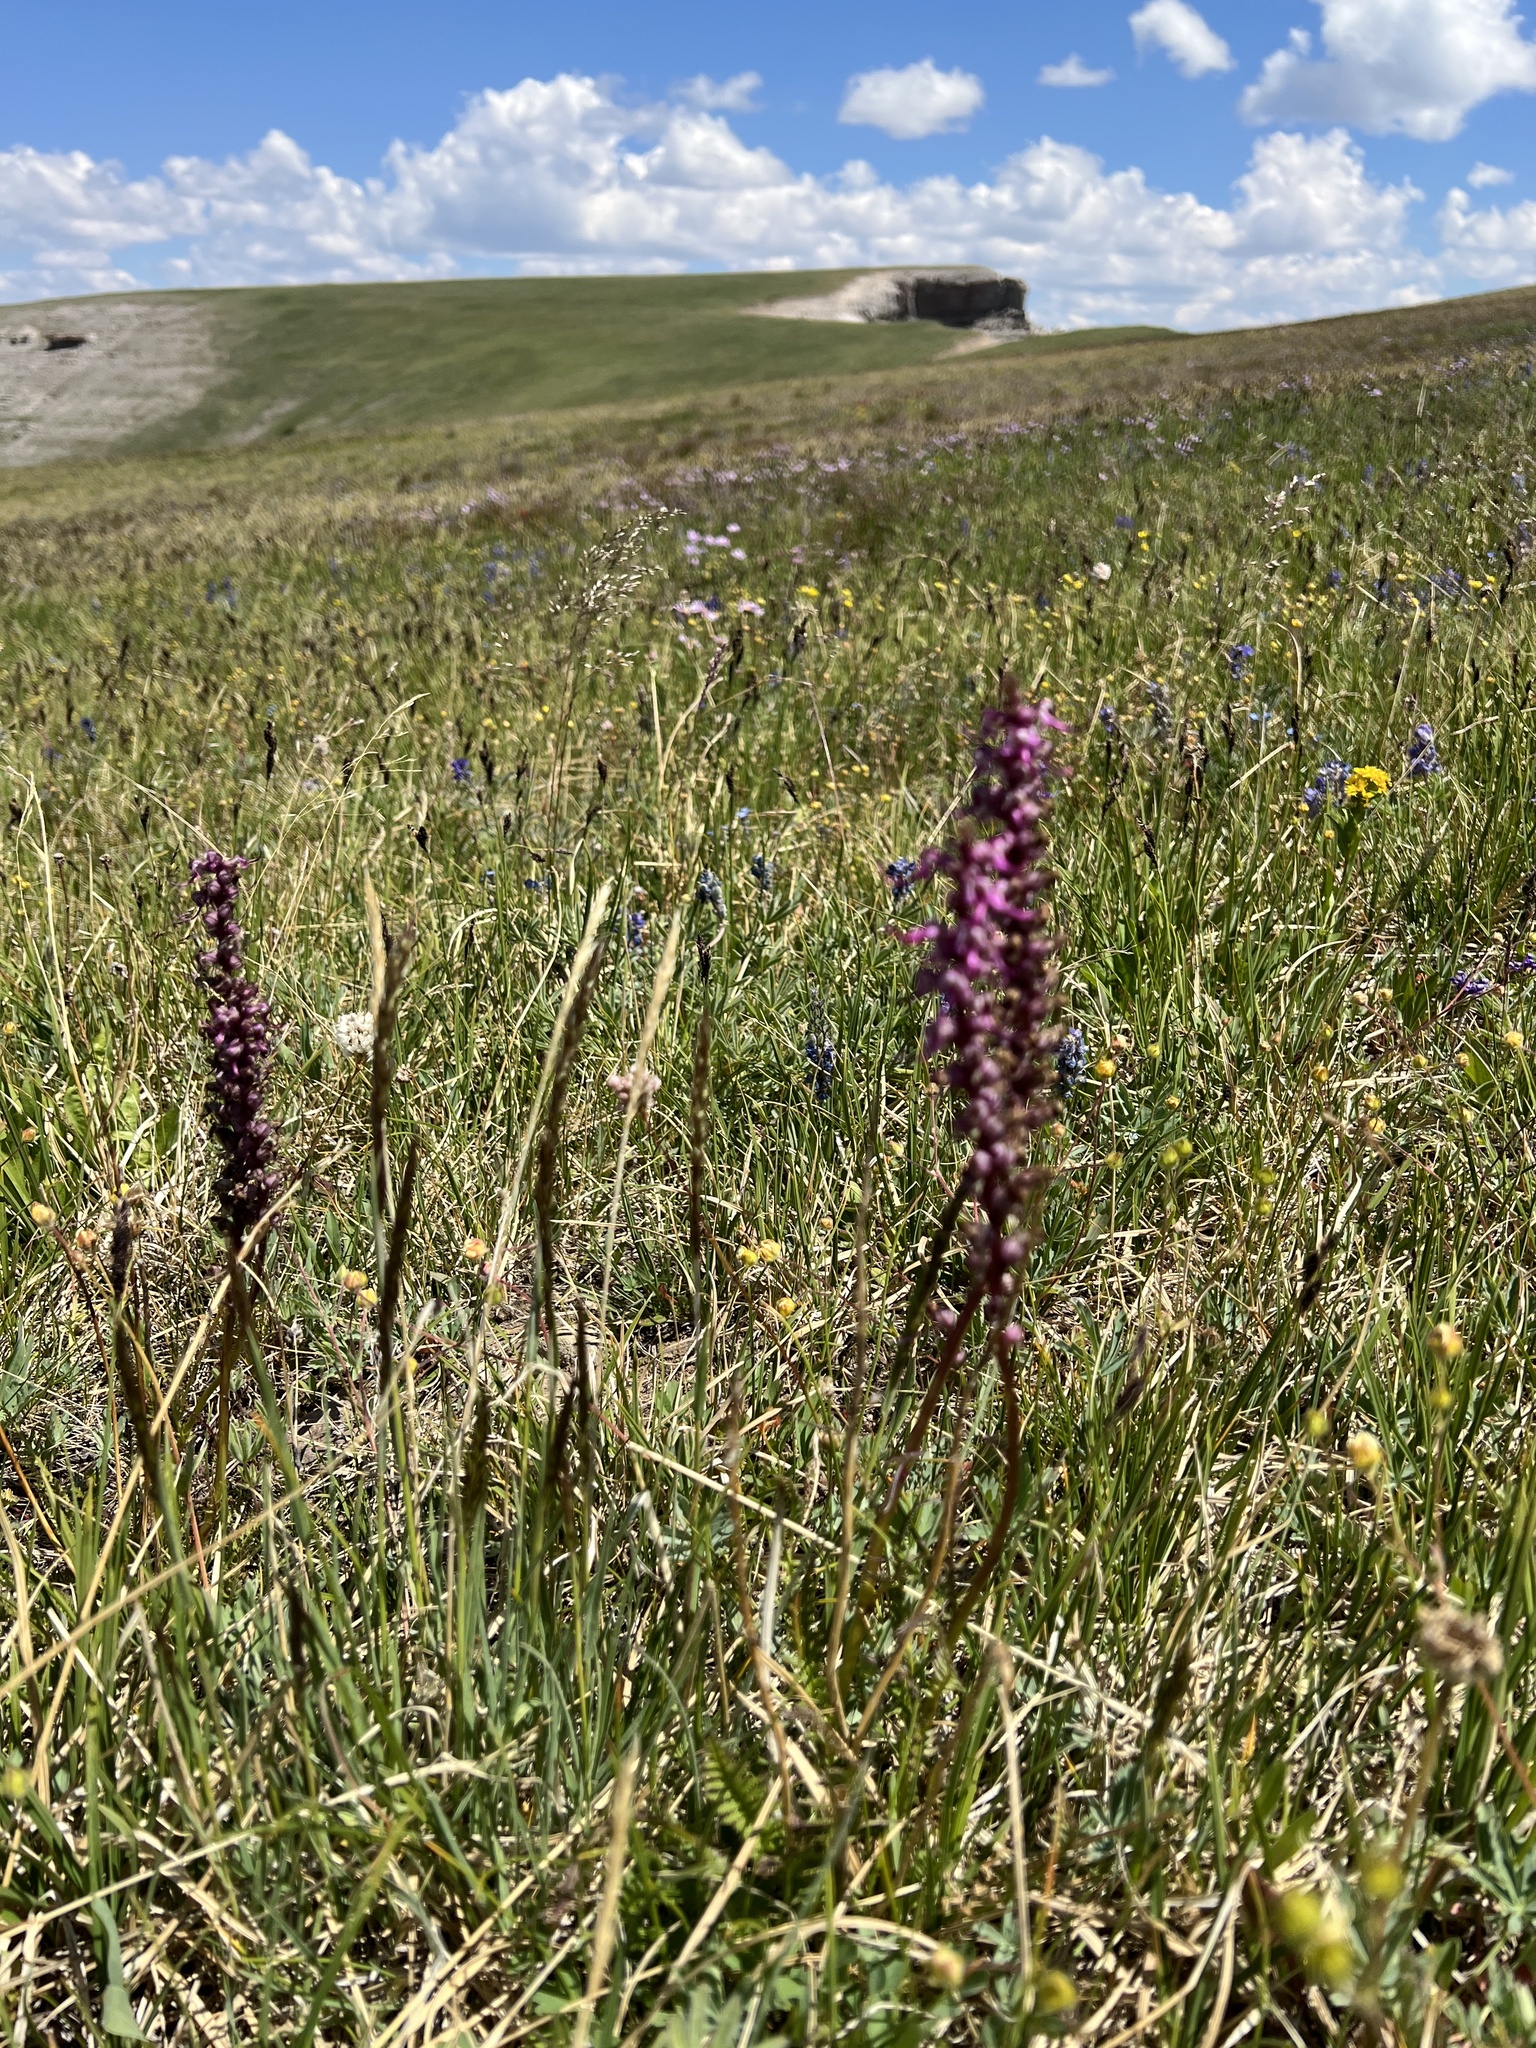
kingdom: Plantae
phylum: Tracheophyta
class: Magnoliopsida
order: Lamiales
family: Orobanchaceae
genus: Pedicularis
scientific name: Pedicularis groenlandica
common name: Elephant's-head
